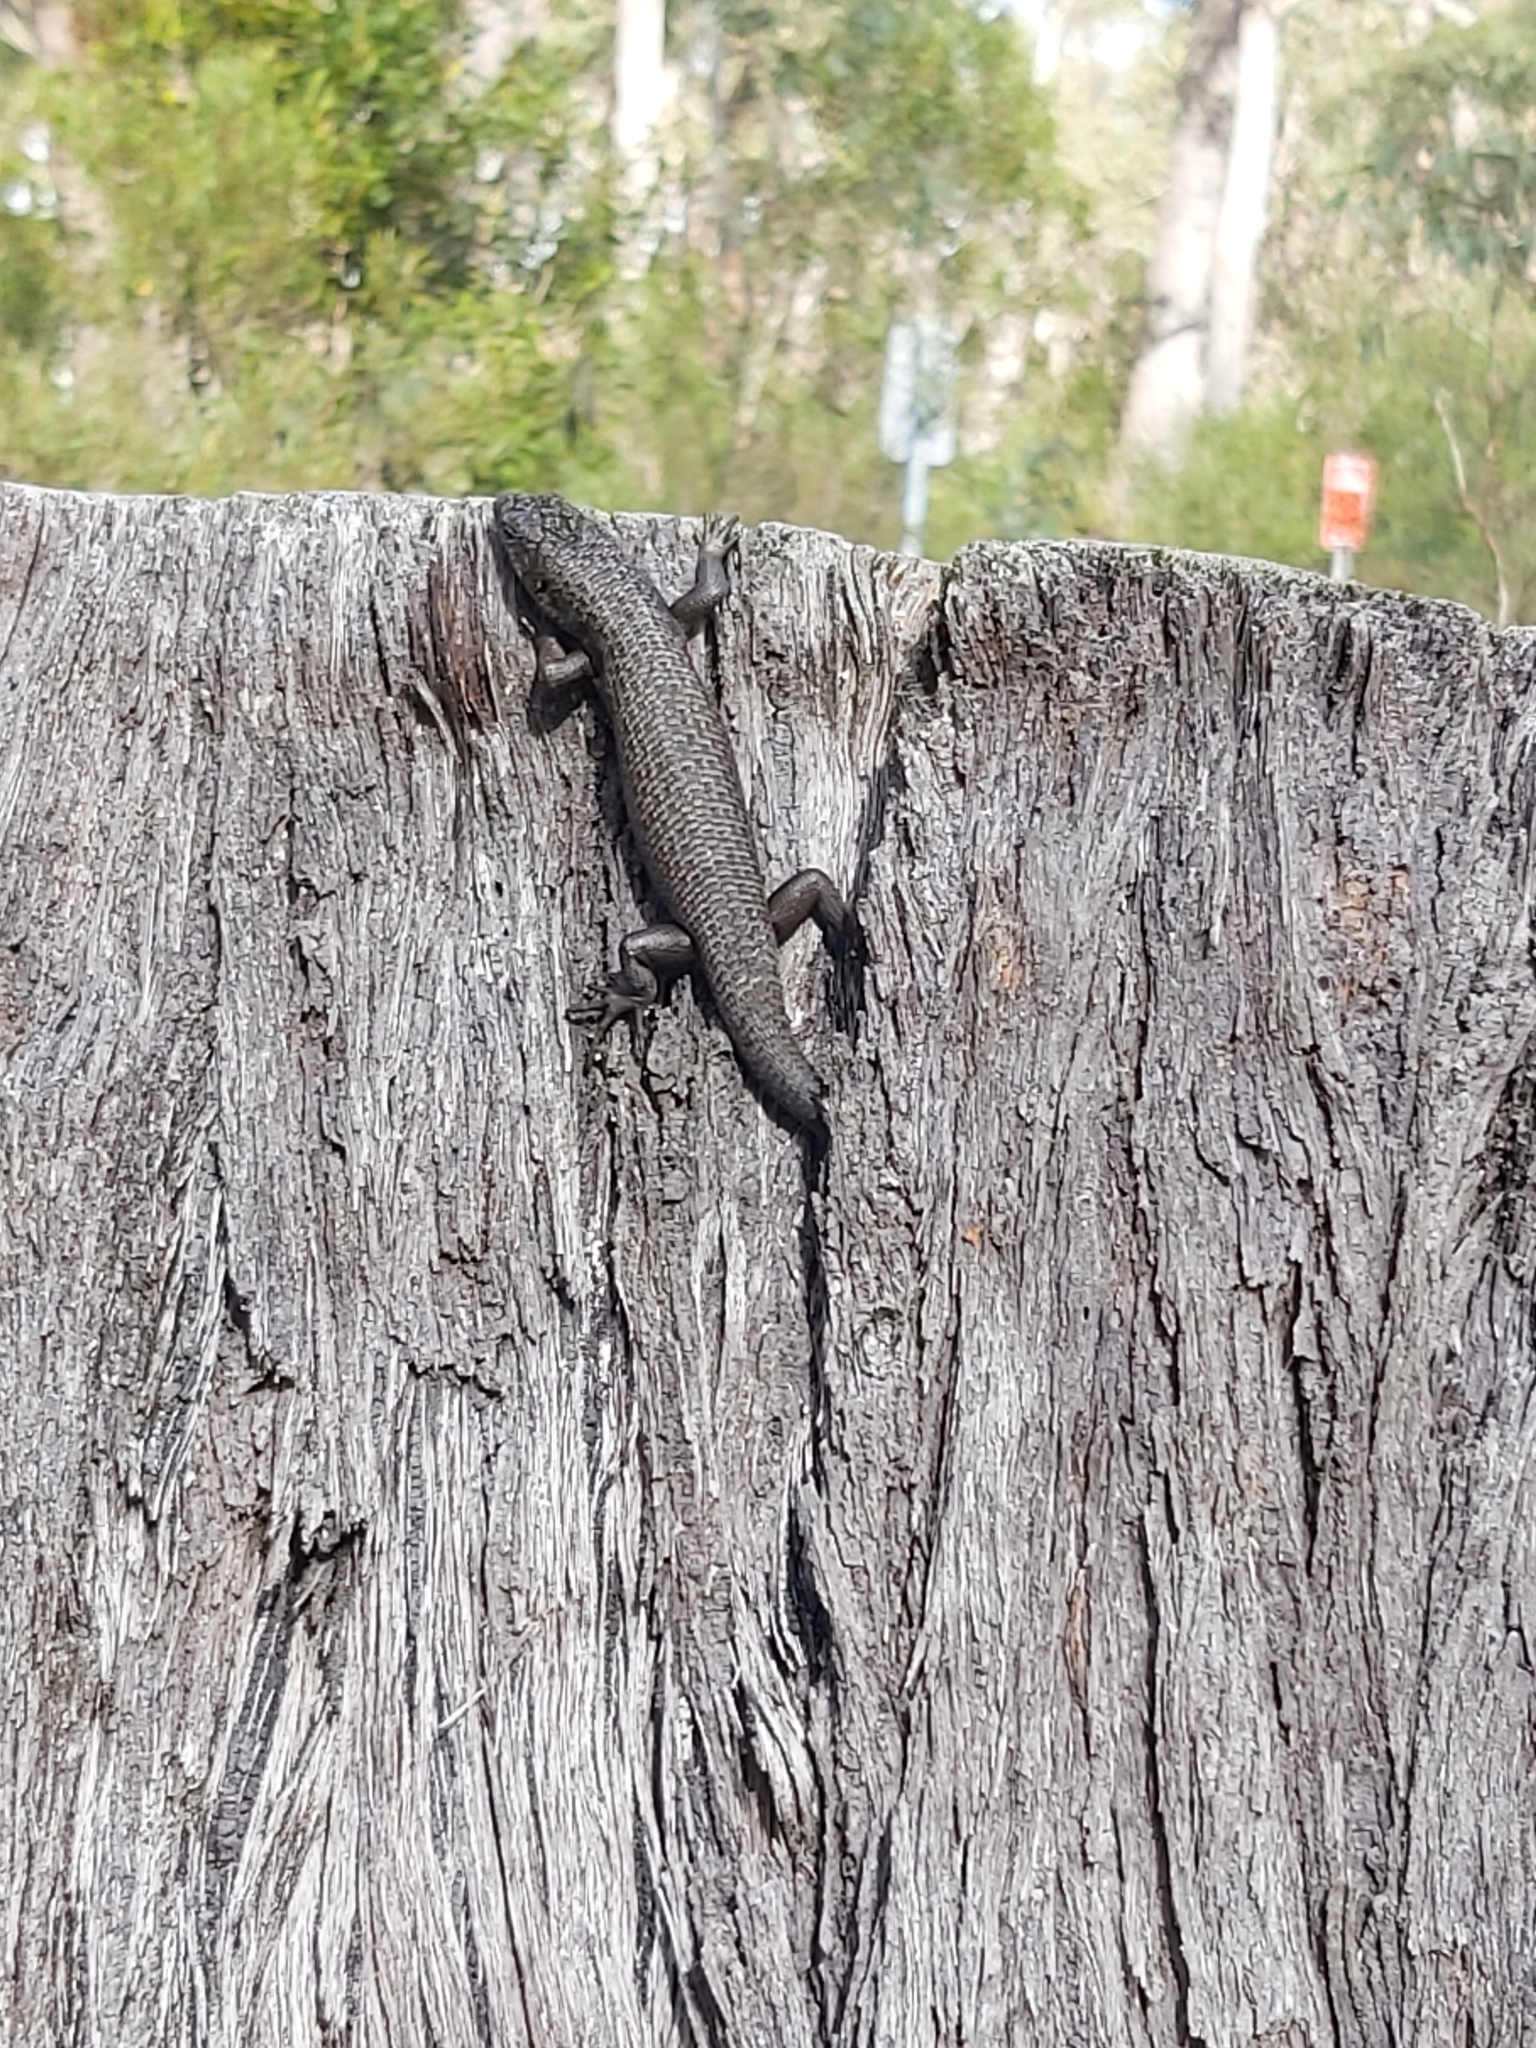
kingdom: Animalia
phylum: Chordata
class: Squamata
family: Scincidae
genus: Egernia
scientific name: Egernia saxatilis
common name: Black crevice-skink
